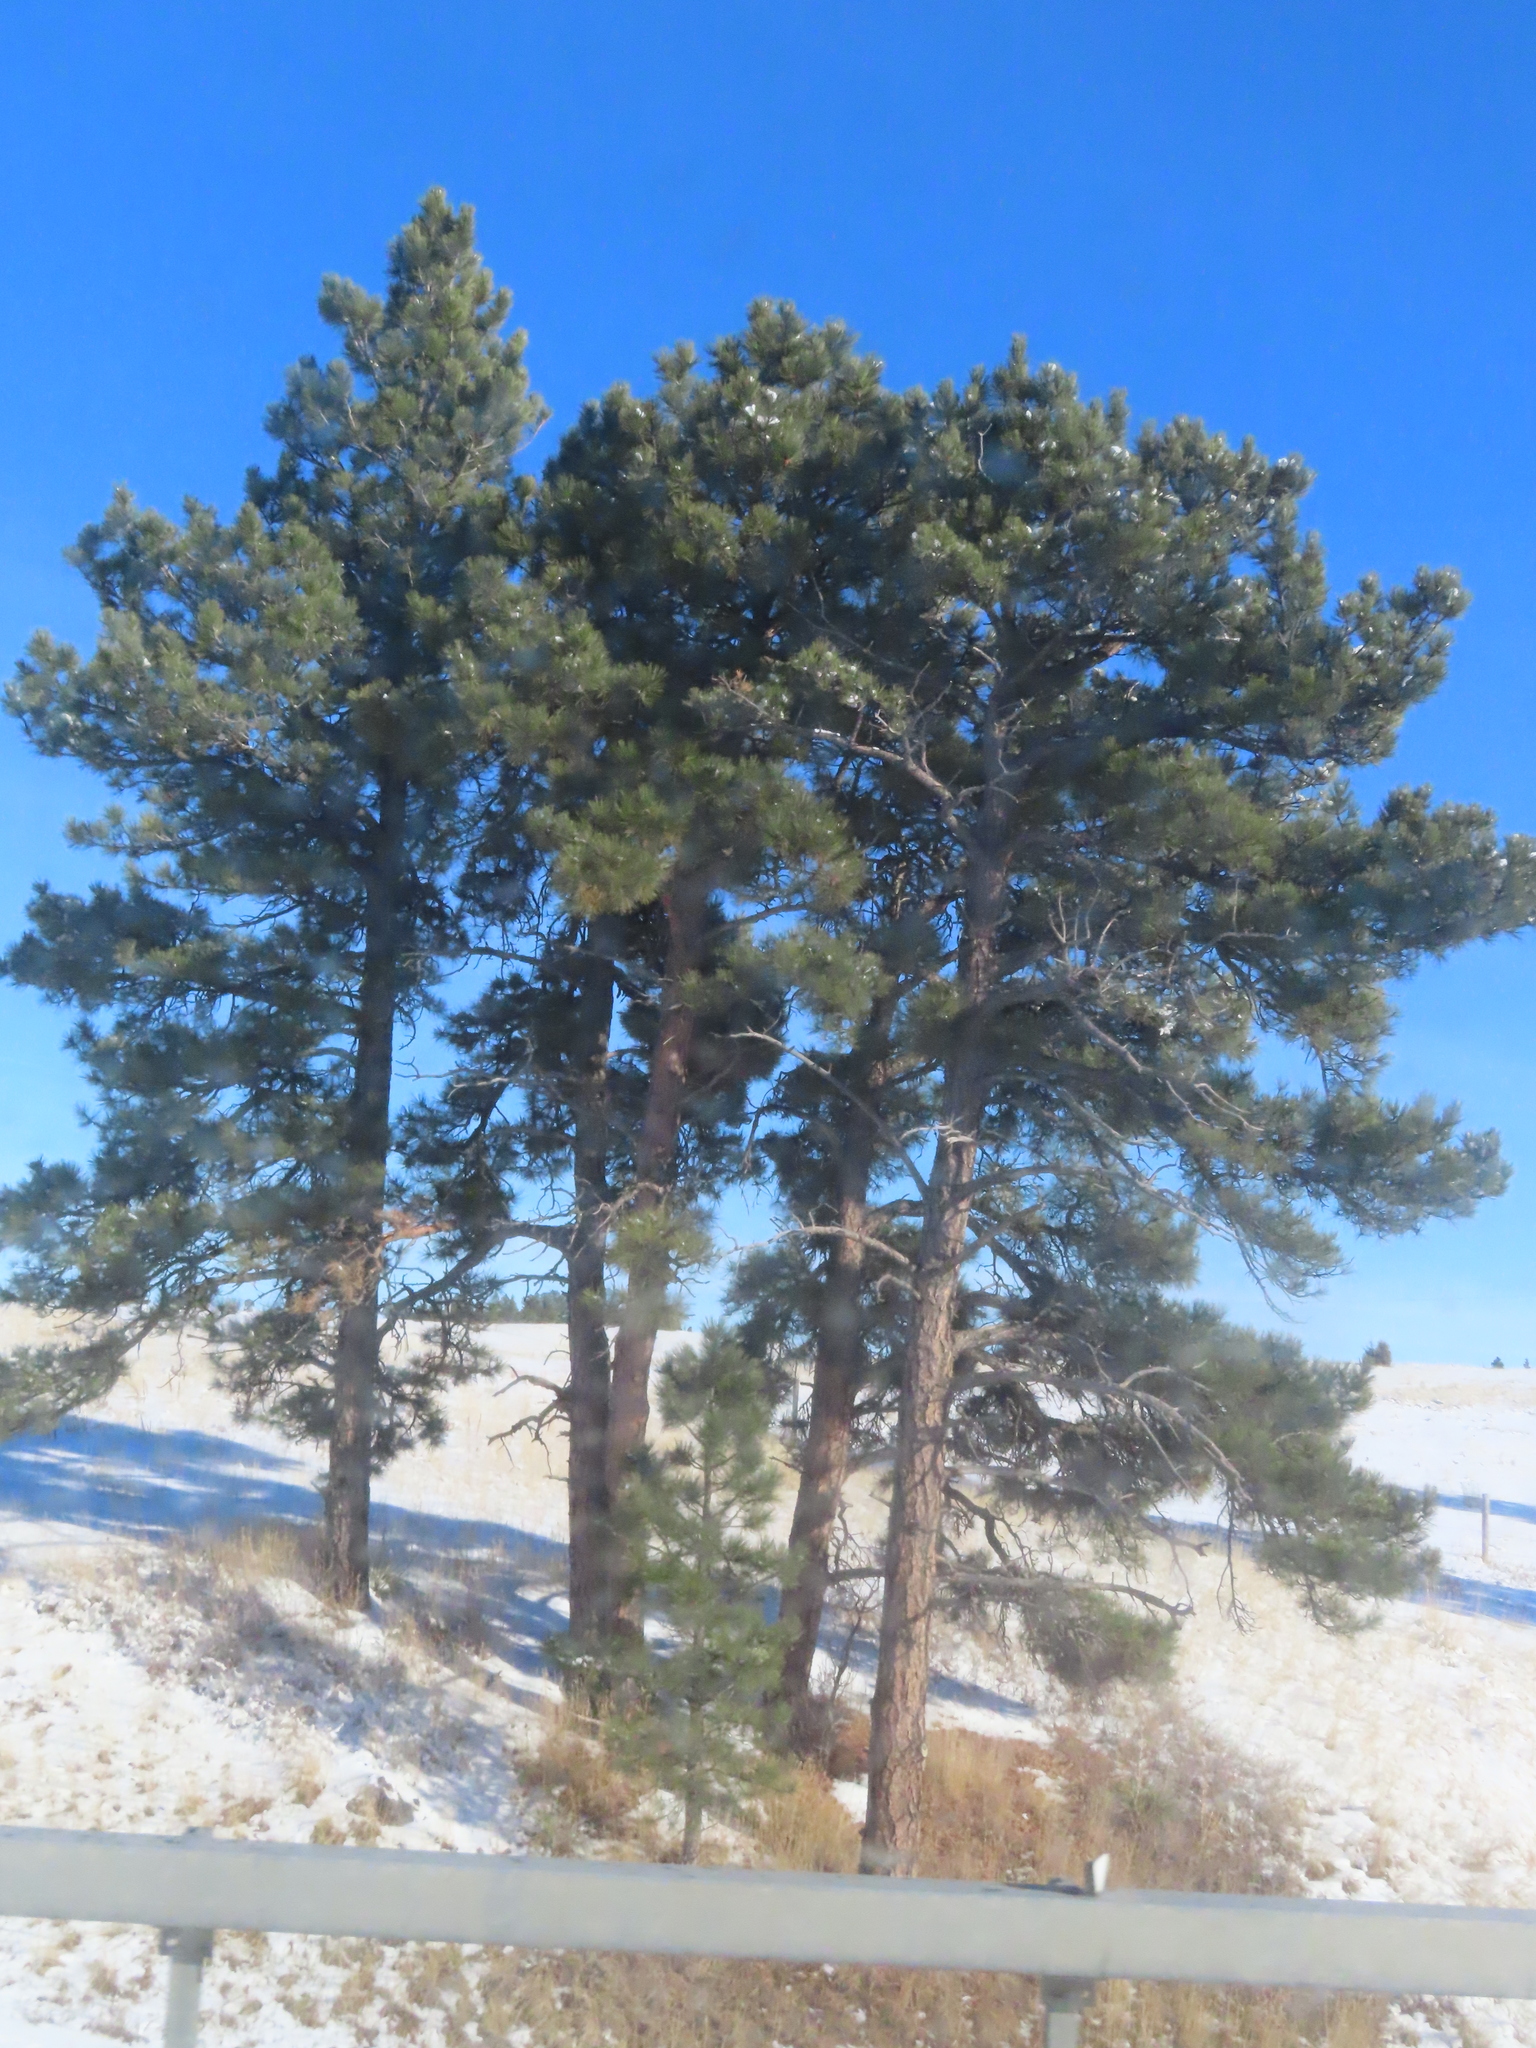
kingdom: Plantae
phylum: Tracheophyta
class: Pinopsida
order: Pinales
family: Pinaceae
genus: Pinus
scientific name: Pinus ponderosa
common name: Western yellow-pine
